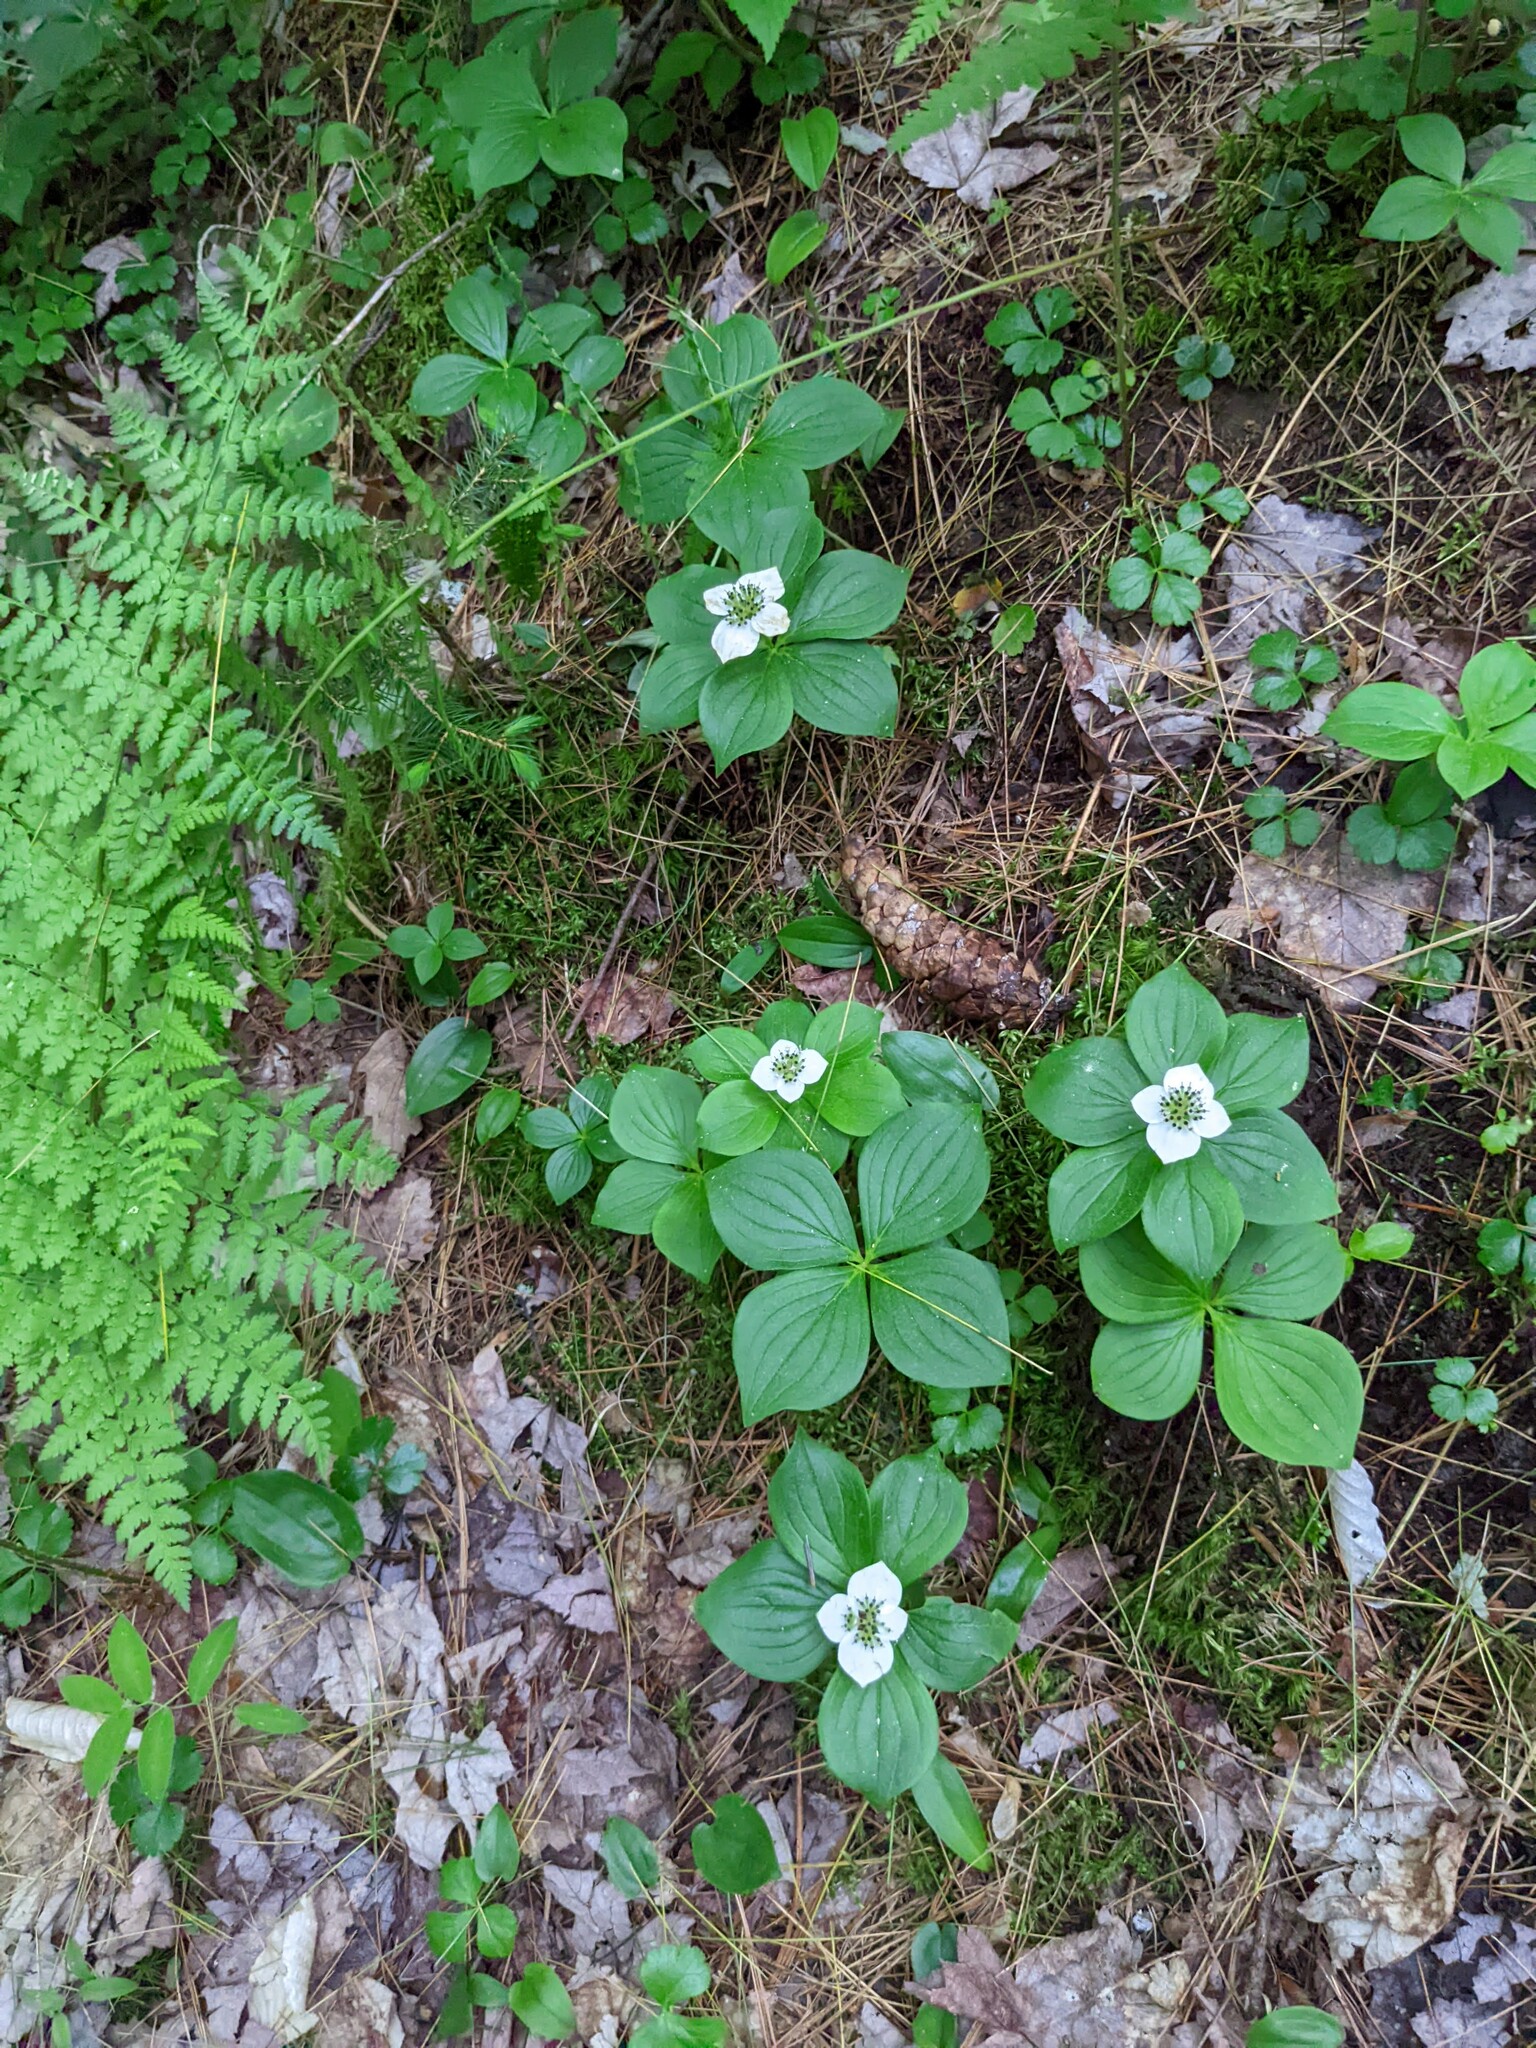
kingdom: Plantae
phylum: Tracheophyta
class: Magnoliopsida
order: Cornales
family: Cornaceae
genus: Cornus
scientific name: Cornus canadensis
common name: Creeping dogwood
